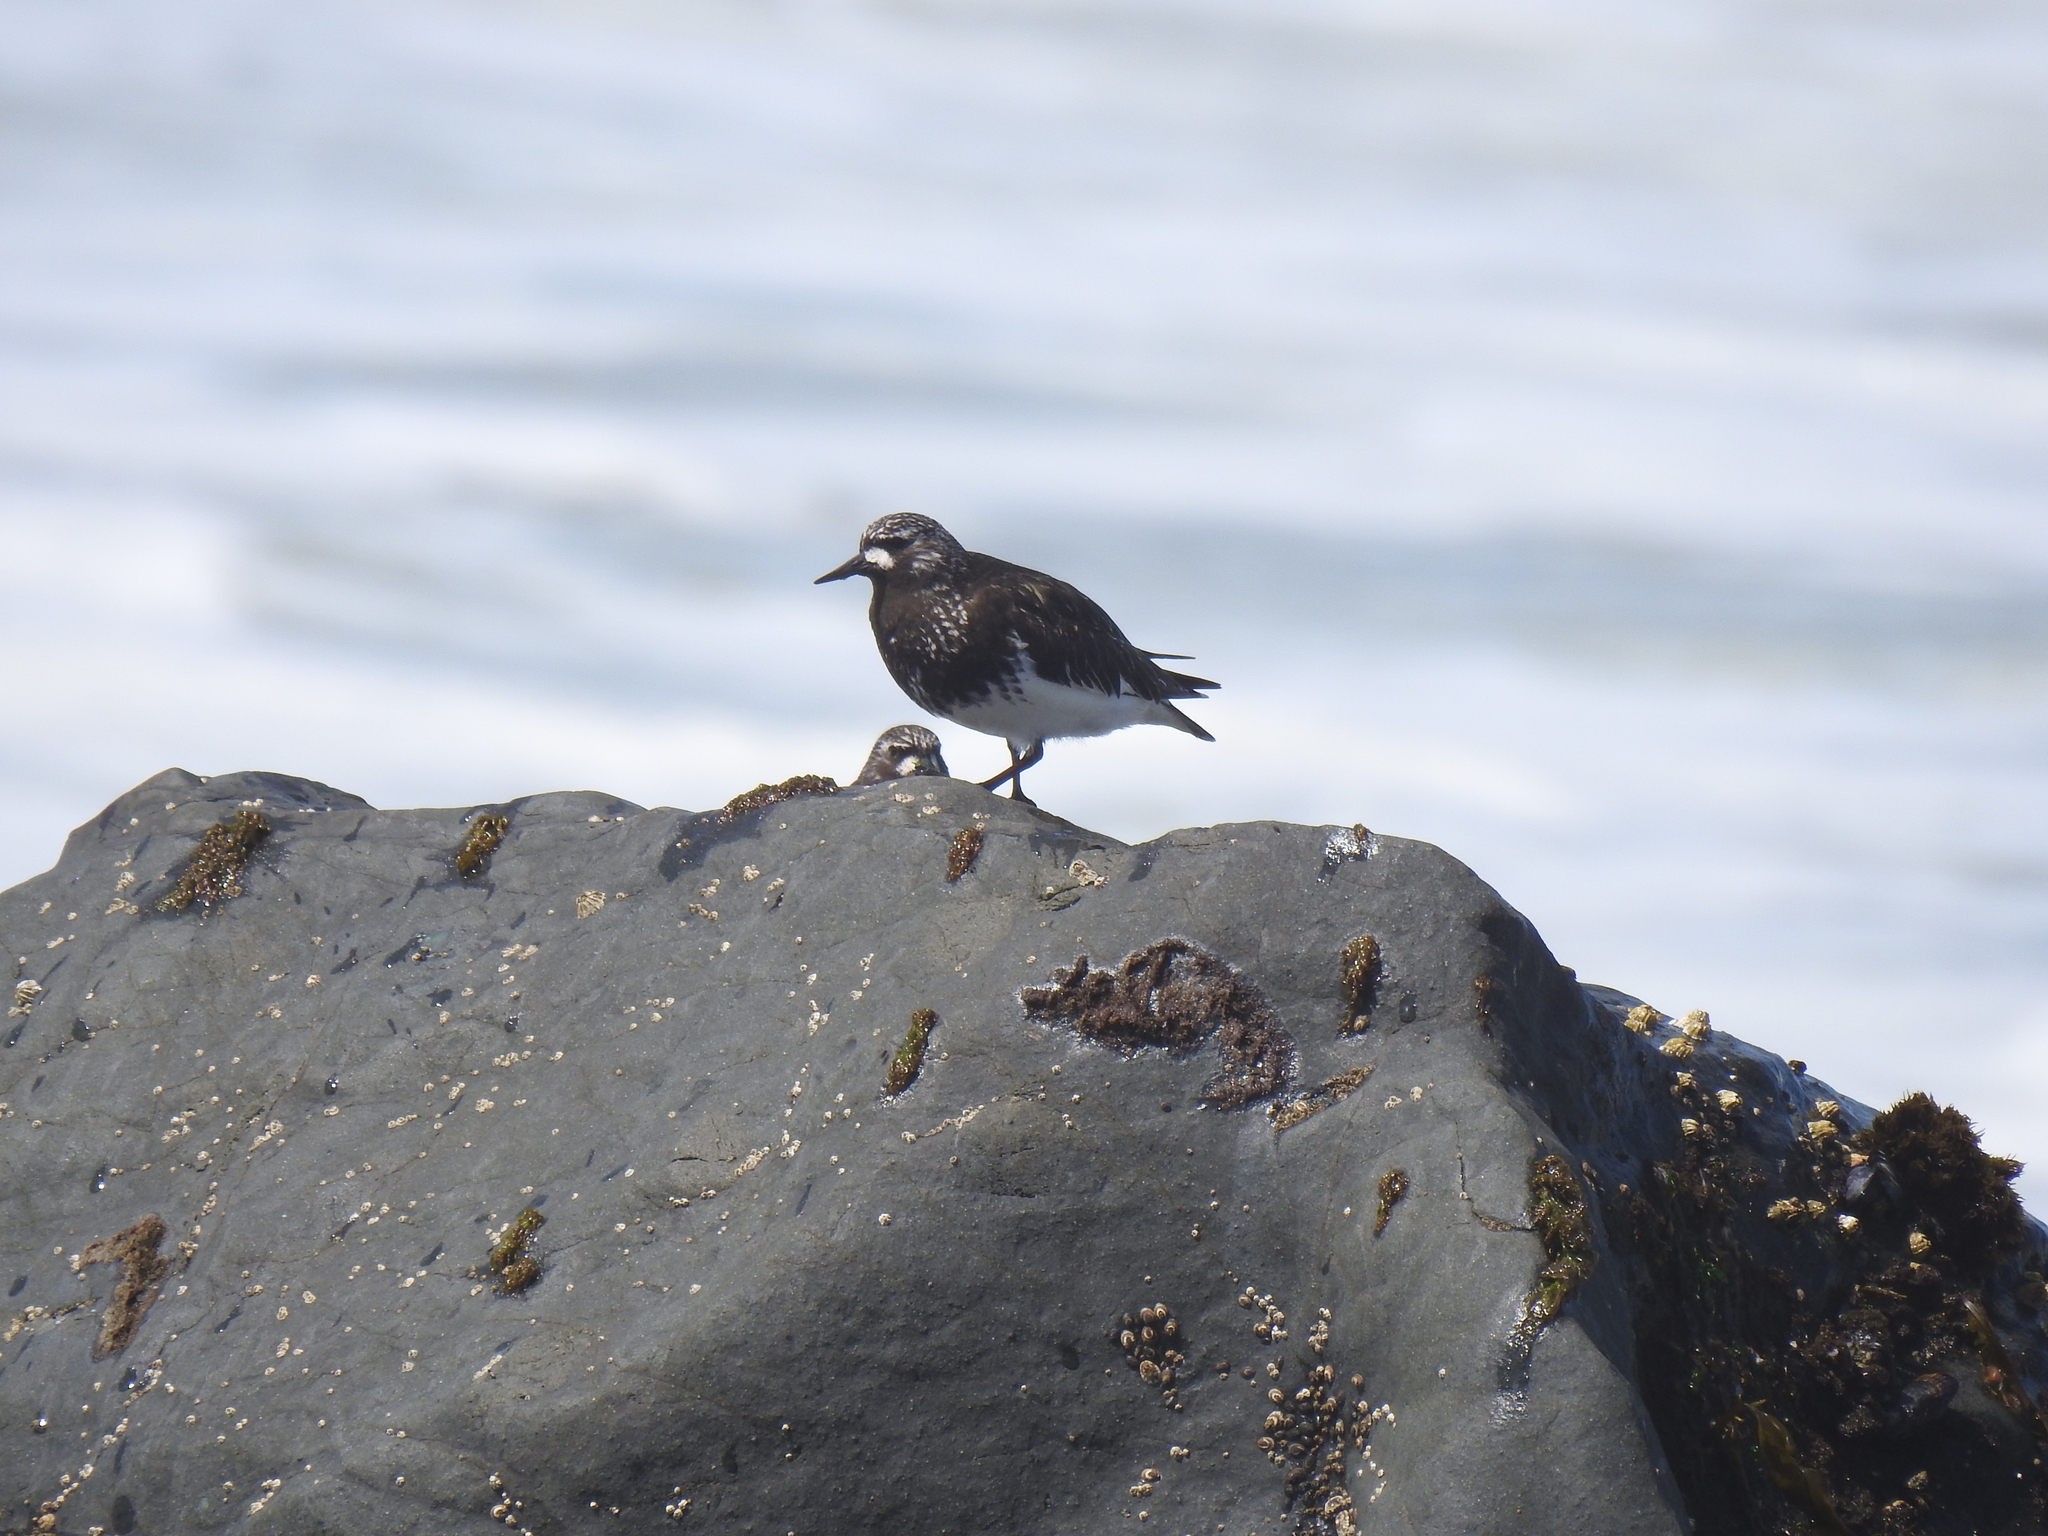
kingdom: Animalia
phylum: Chordata
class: Aves
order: Charadriiformes
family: Scolopacidae
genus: Arenaria
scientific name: Arenaria melanocephala
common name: Black turnstone
